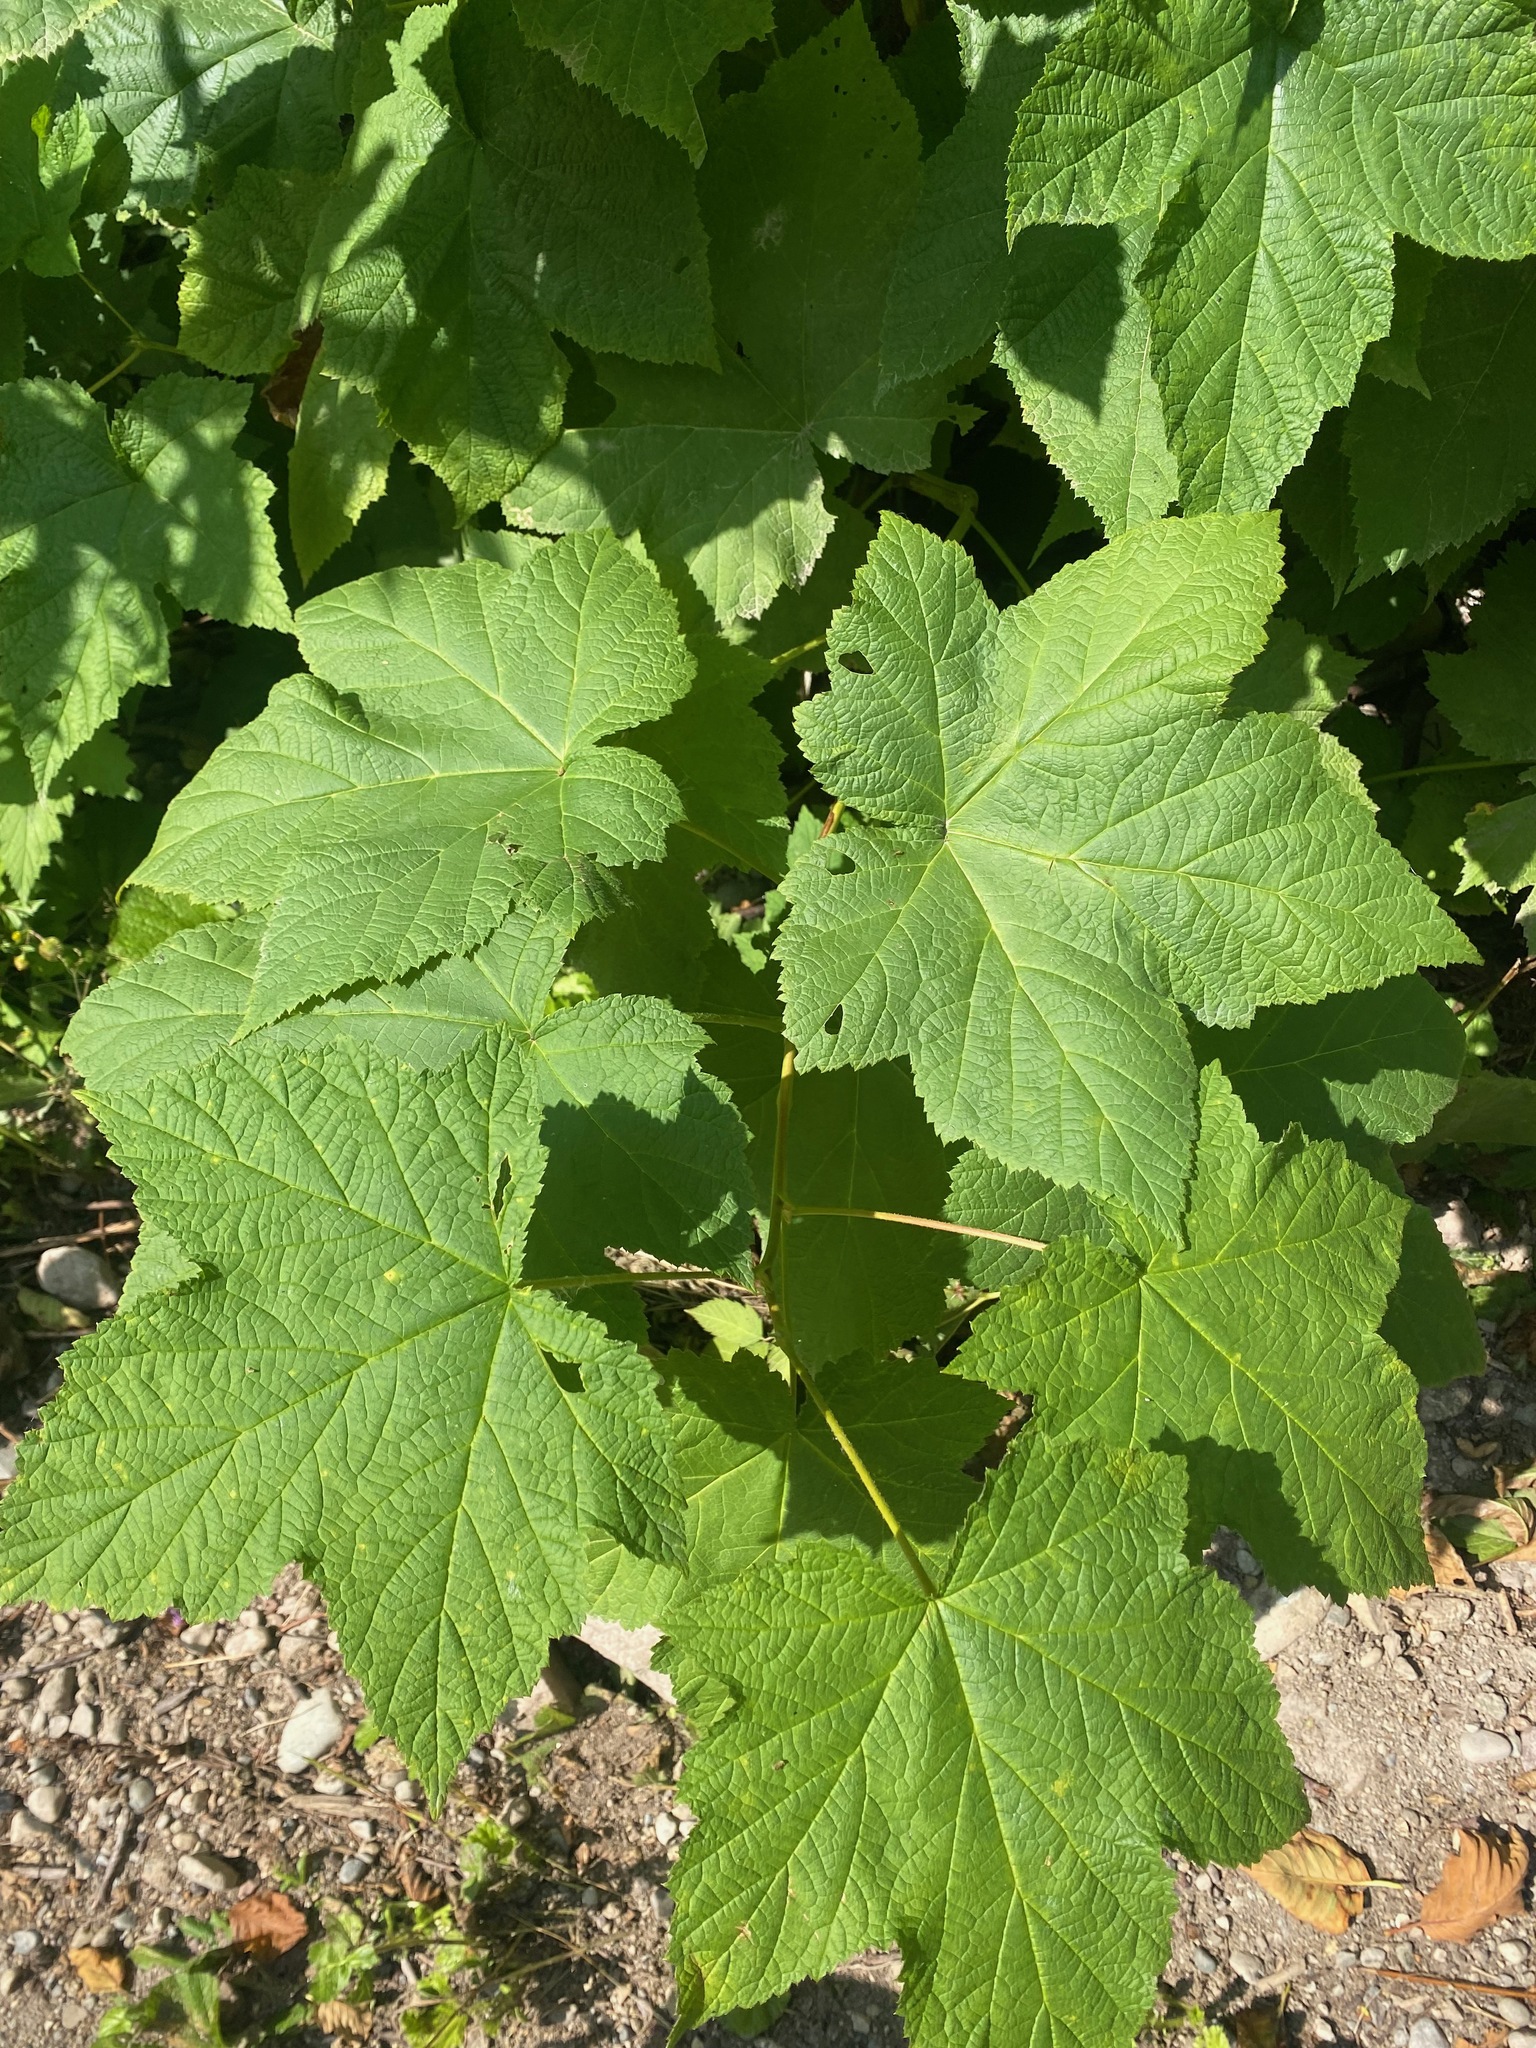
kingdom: Plantae
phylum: Tracheophyta
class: Magnoliopsida
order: Rosales
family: Rosaceae
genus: Rubus
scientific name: Rubus parviflorus
